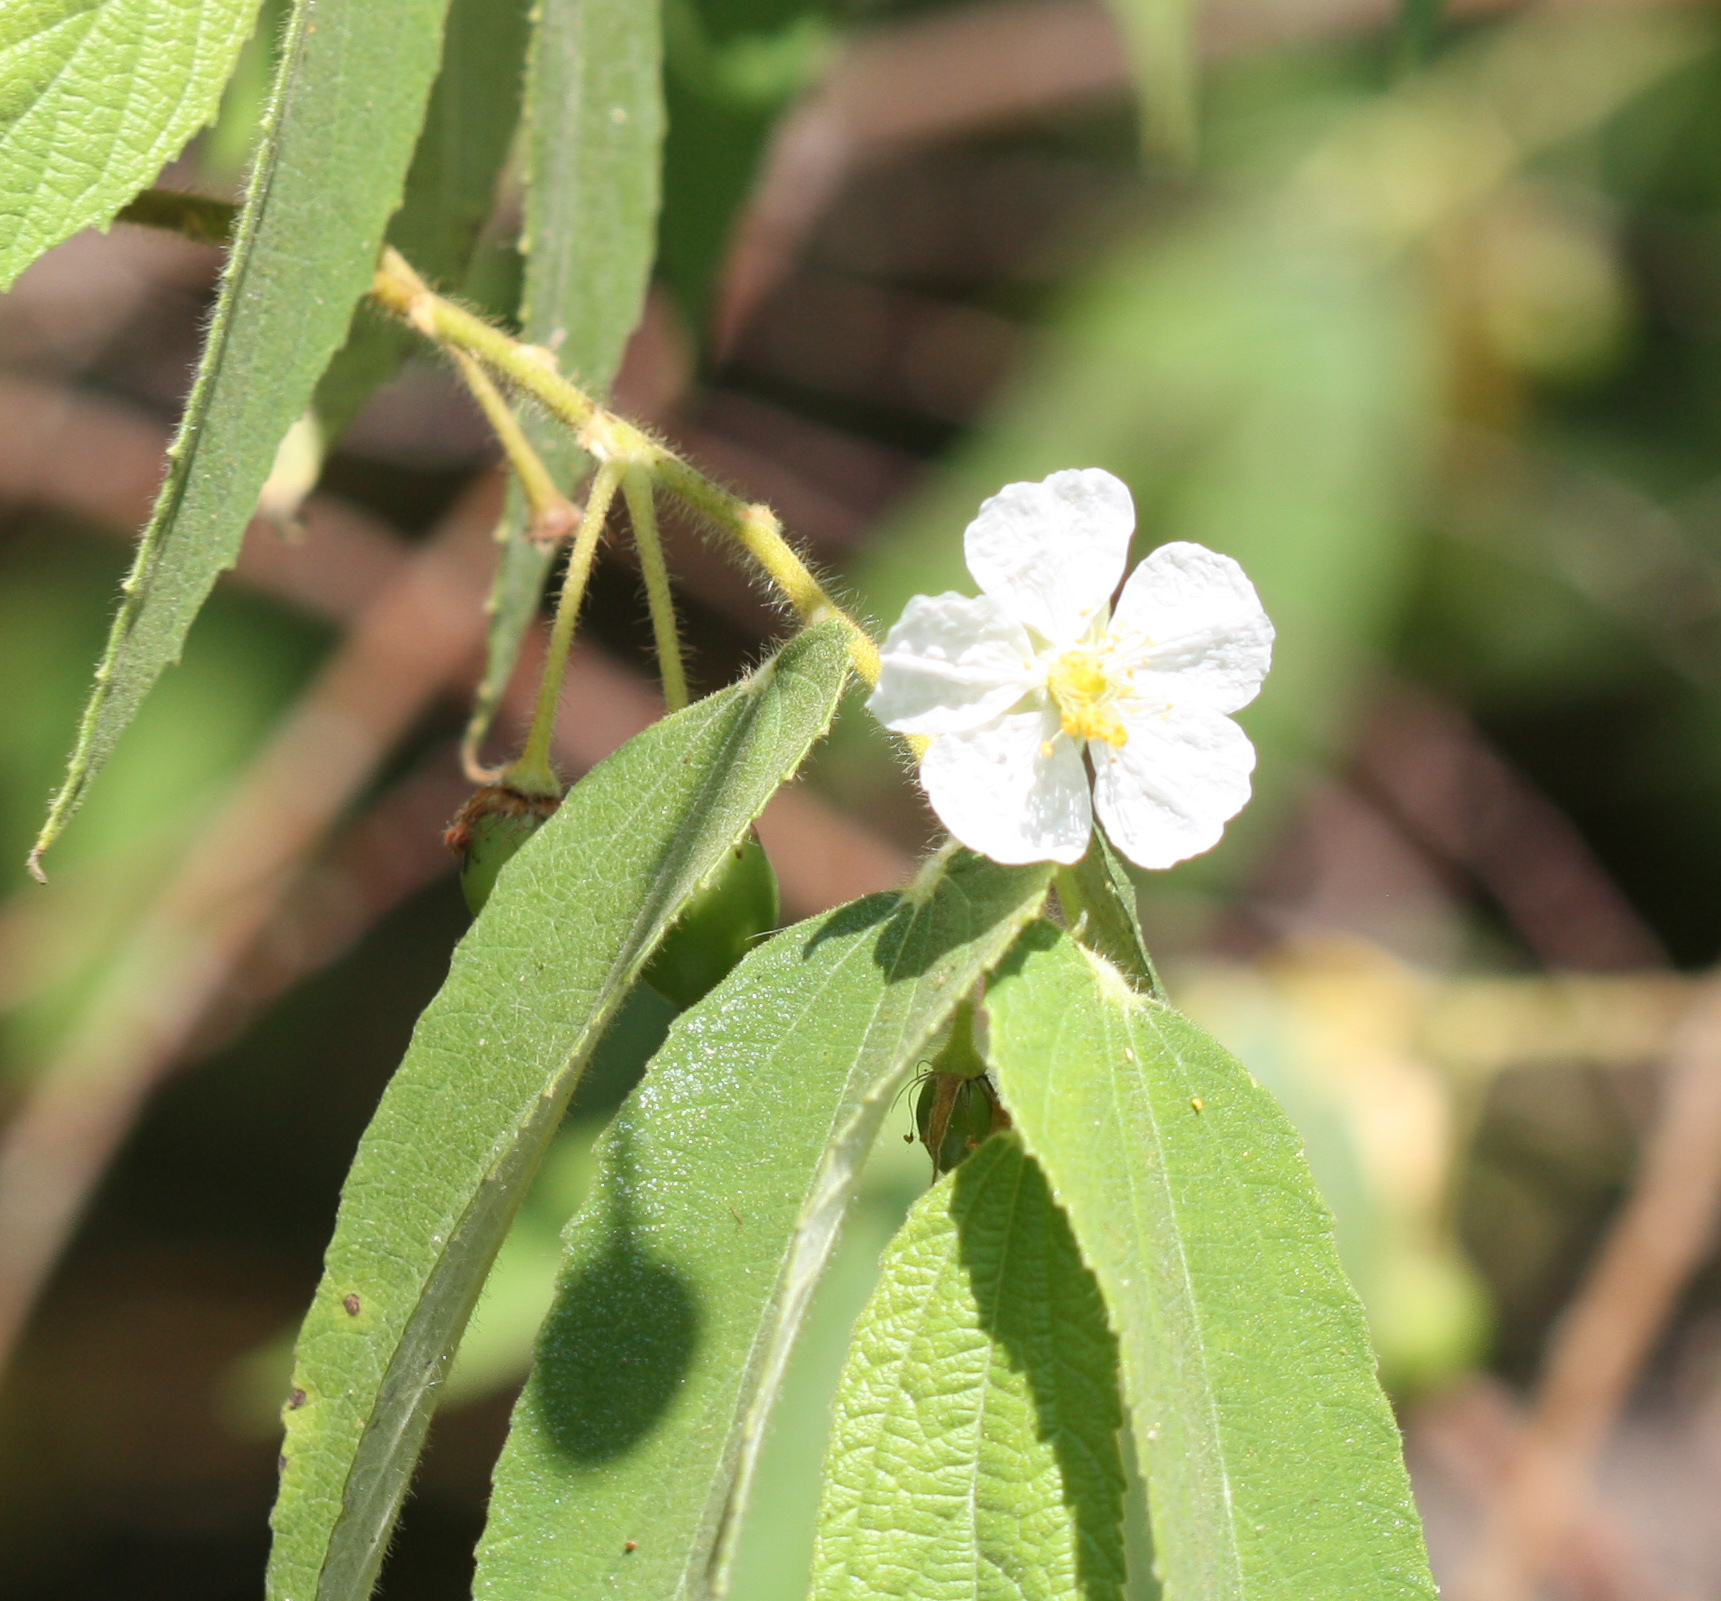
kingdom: Plantae
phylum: Tracheophyta
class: Magnoliopsida
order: Malvales
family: Muntingiaceae
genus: Muntingia
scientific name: Muntingia calabura
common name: Strawberrytree
